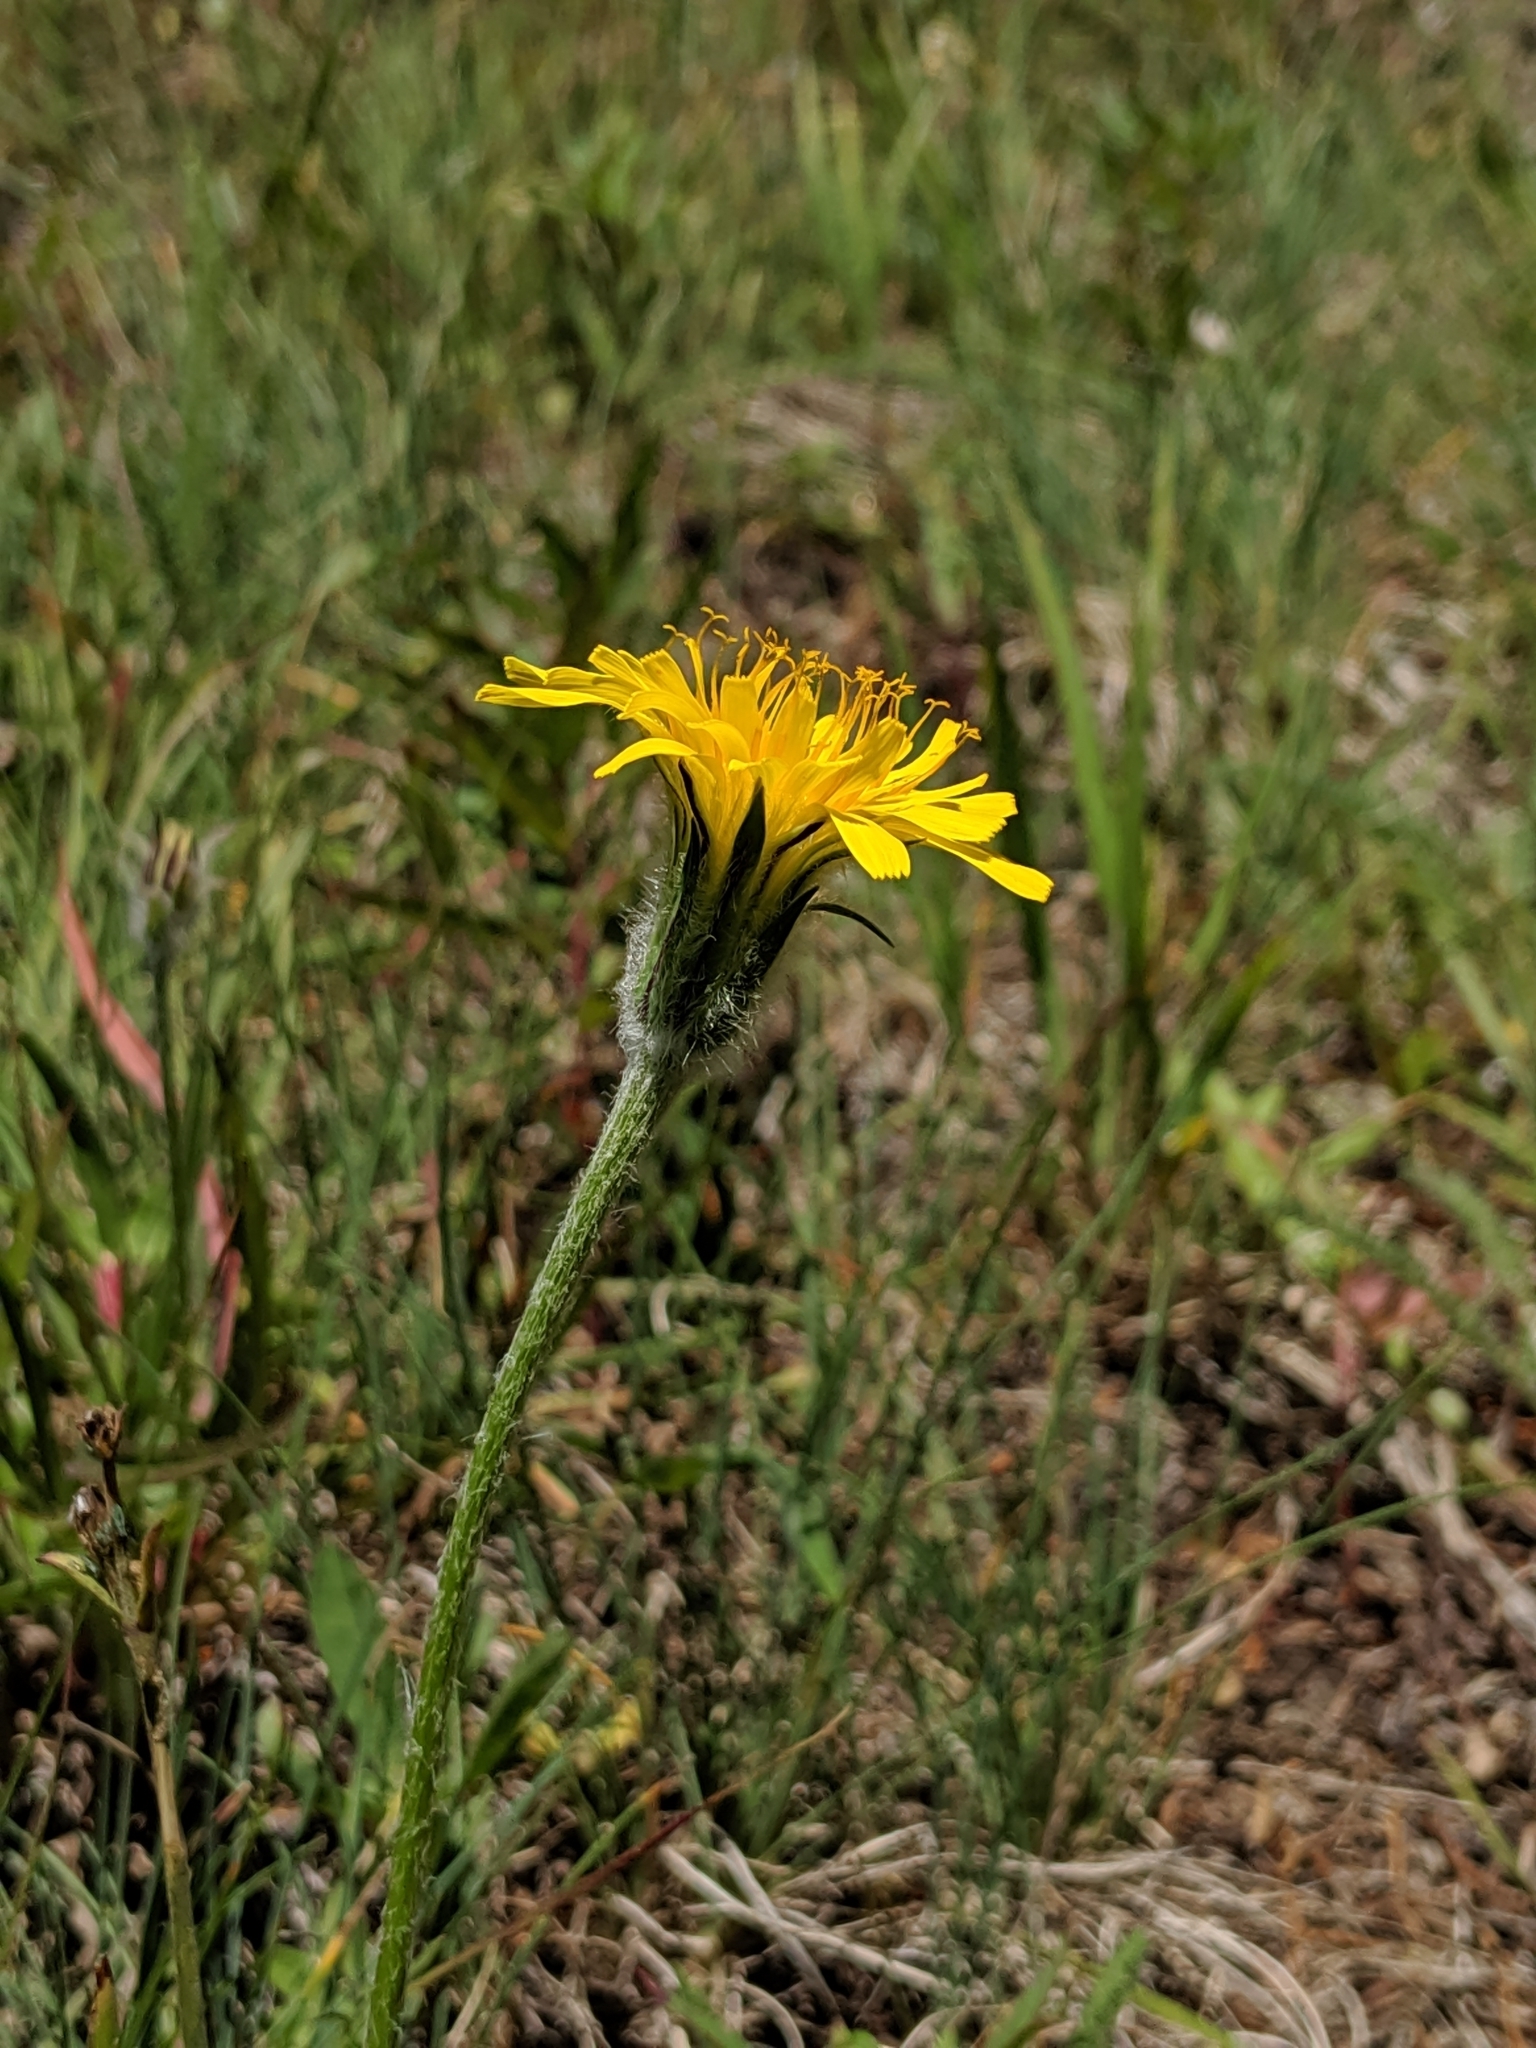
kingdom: Plantae
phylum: Tracheophyta
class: Magnoliopsida
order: Asterales
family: Asteraceae
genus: Agoseris
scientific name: Agoseris glauca
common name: Prairie agoseris
